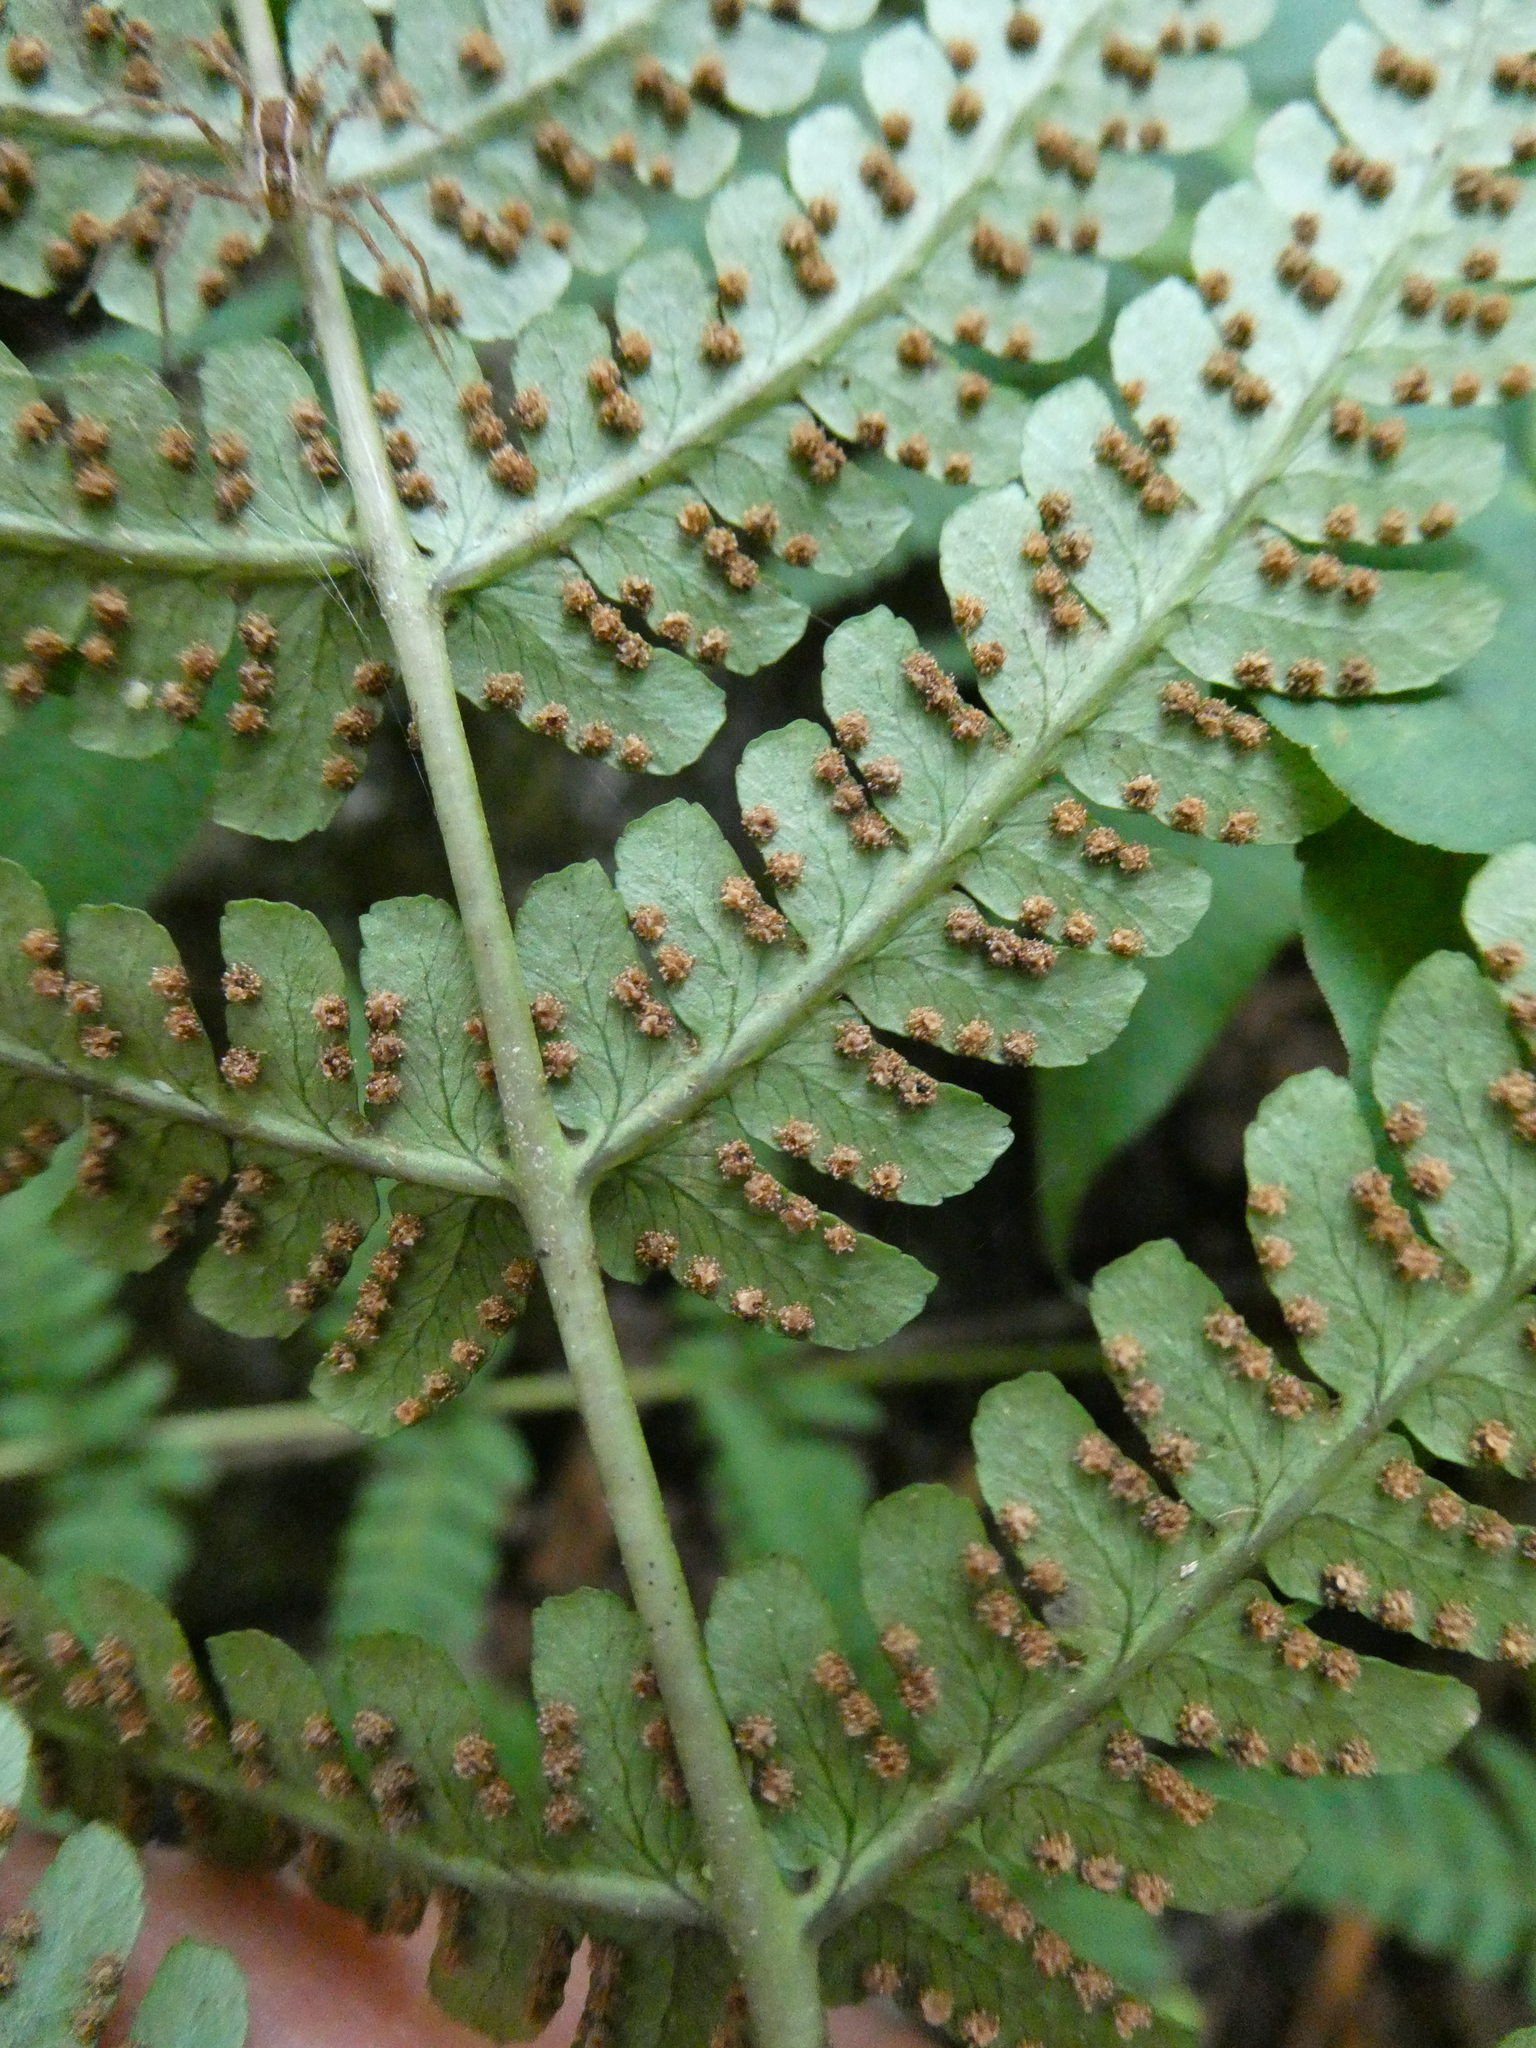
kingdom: Plantae
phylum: Tracheophyta
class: Polypodiopsida
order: Polypodiales
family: Dryopteridaceae
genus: Dryopteris
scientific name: Dryopteris marginalis
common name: Marginal wood fern
